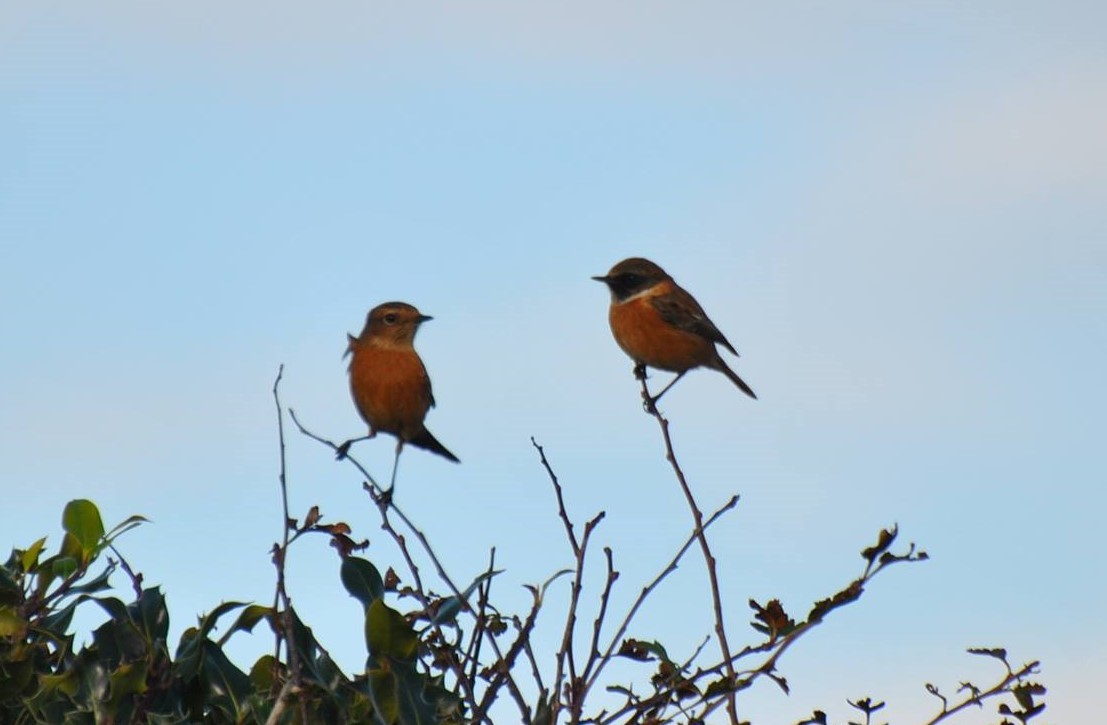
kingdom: Animalia
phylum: Chordata
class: Aves
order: Passeriformes
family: Muscicapidae
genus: Saxicola
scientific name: Saxicola rubicola
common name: European stonechat
